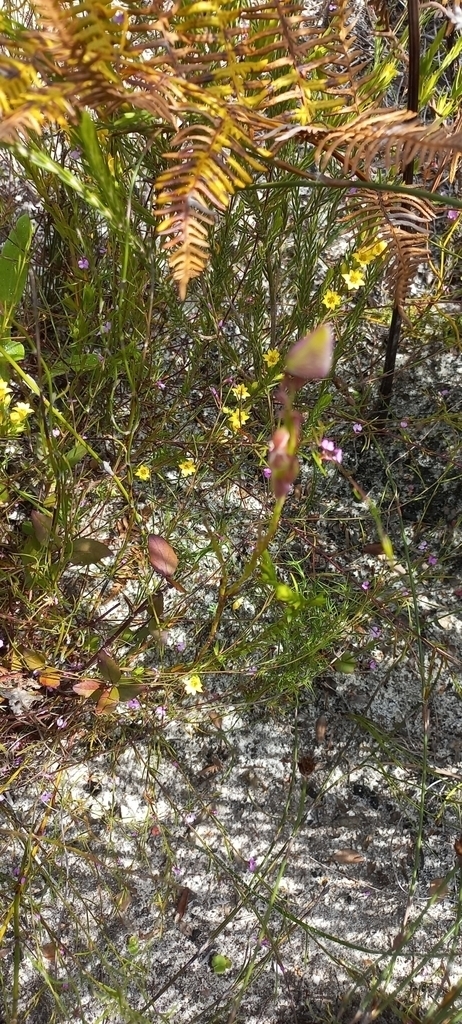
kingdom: Plantae
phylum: Tracheophyta
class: Magnoliopsida
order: Malvales
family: Thymelaeaceae
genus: Gnidia
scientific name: Gnidia juniperifolia
